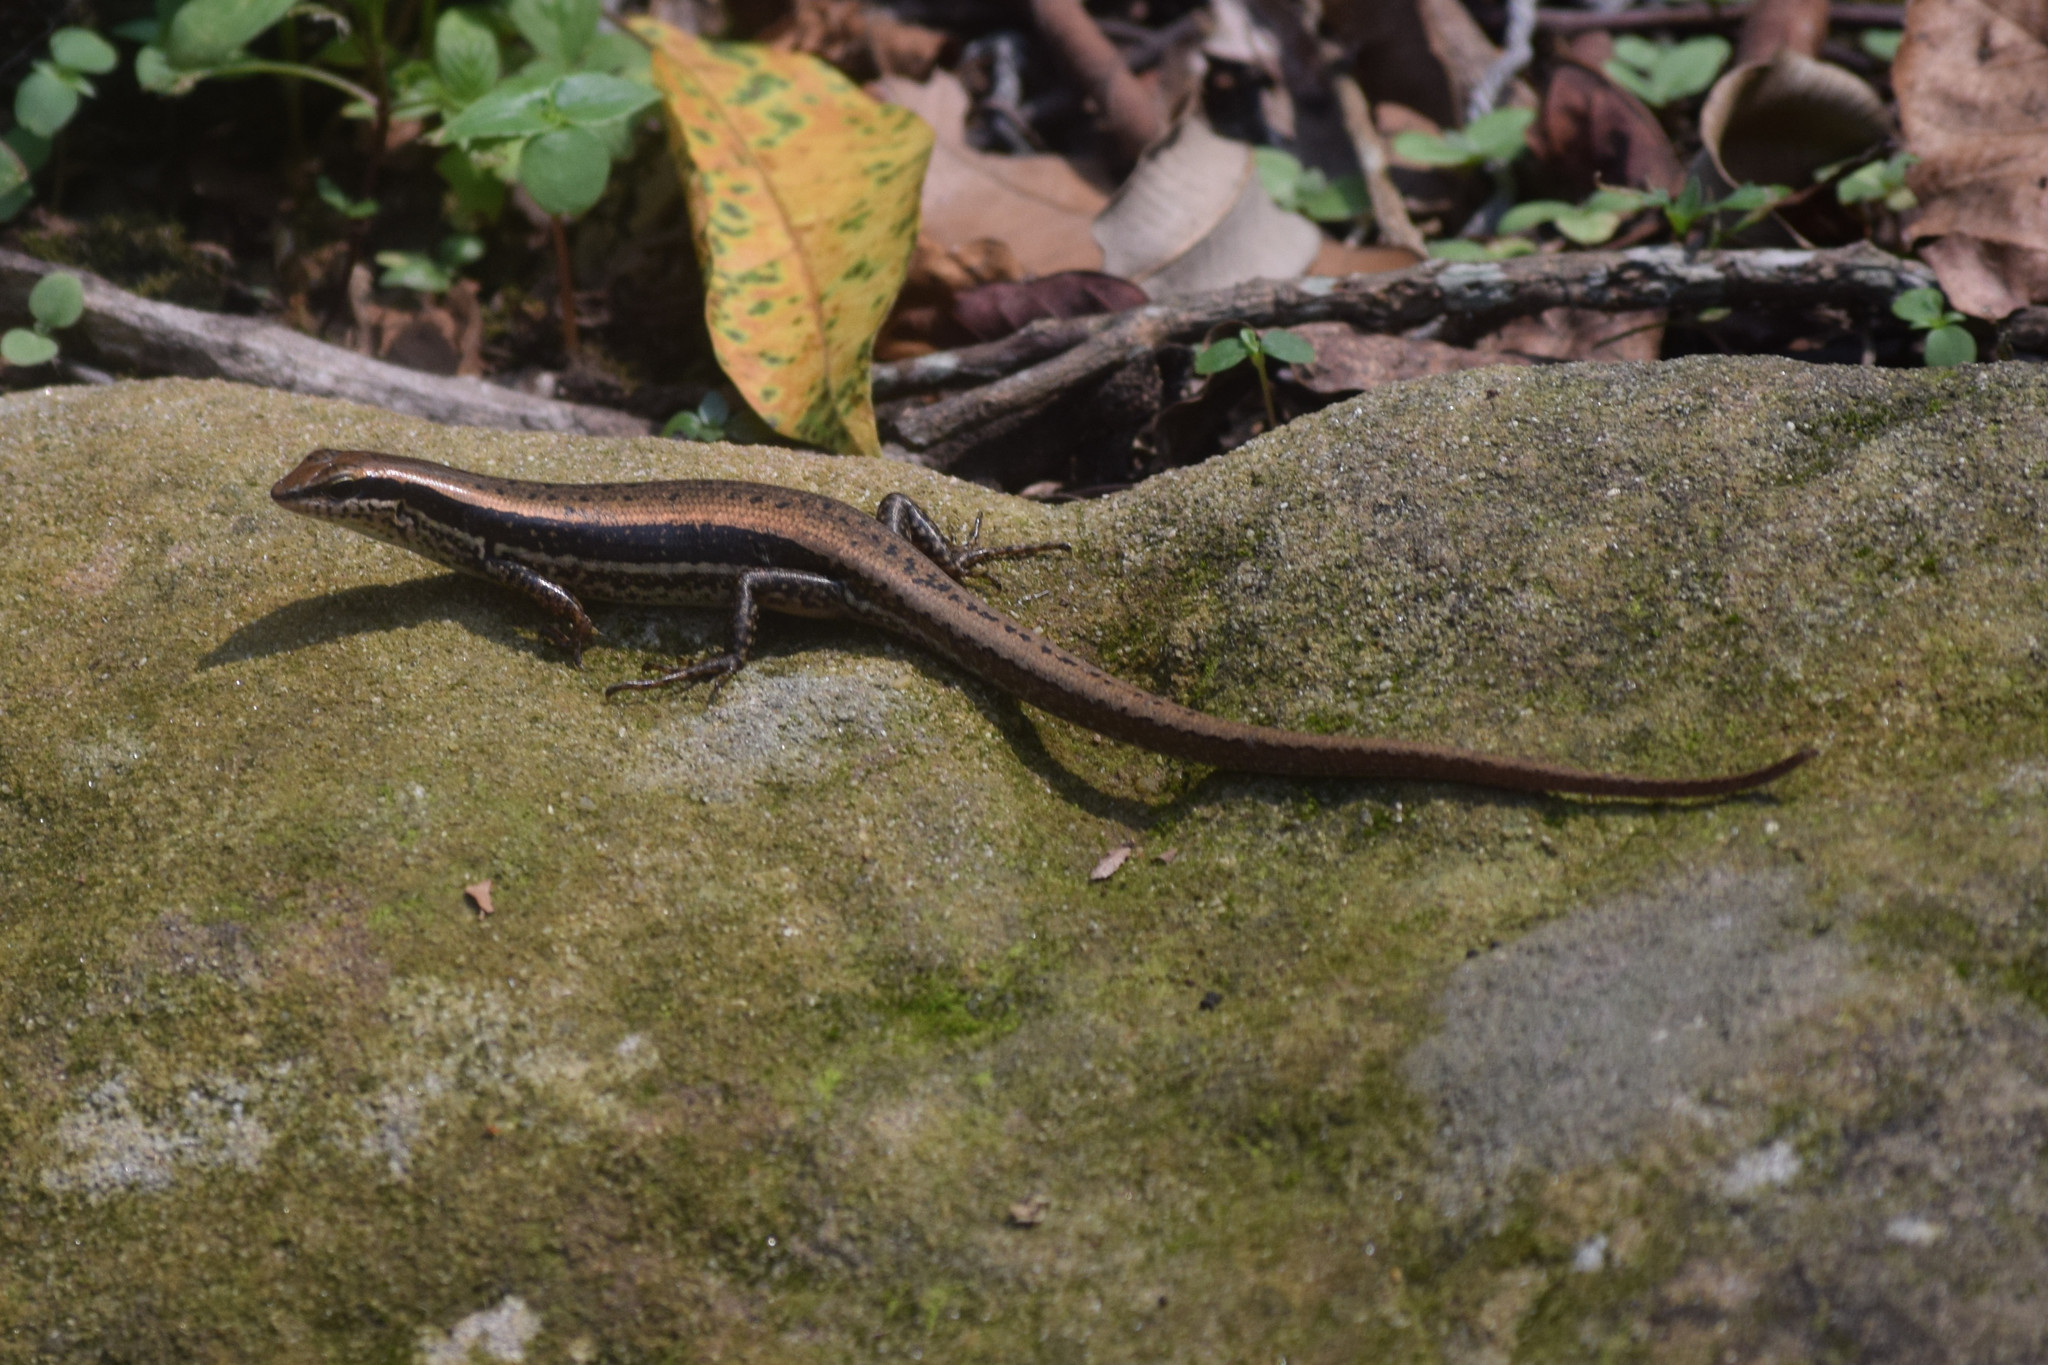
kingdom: Animalia
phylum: Chordata
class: Squamata
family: Scincidae
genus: Eutropis
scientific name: Eutropis macularia
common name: Bronze mabuya
